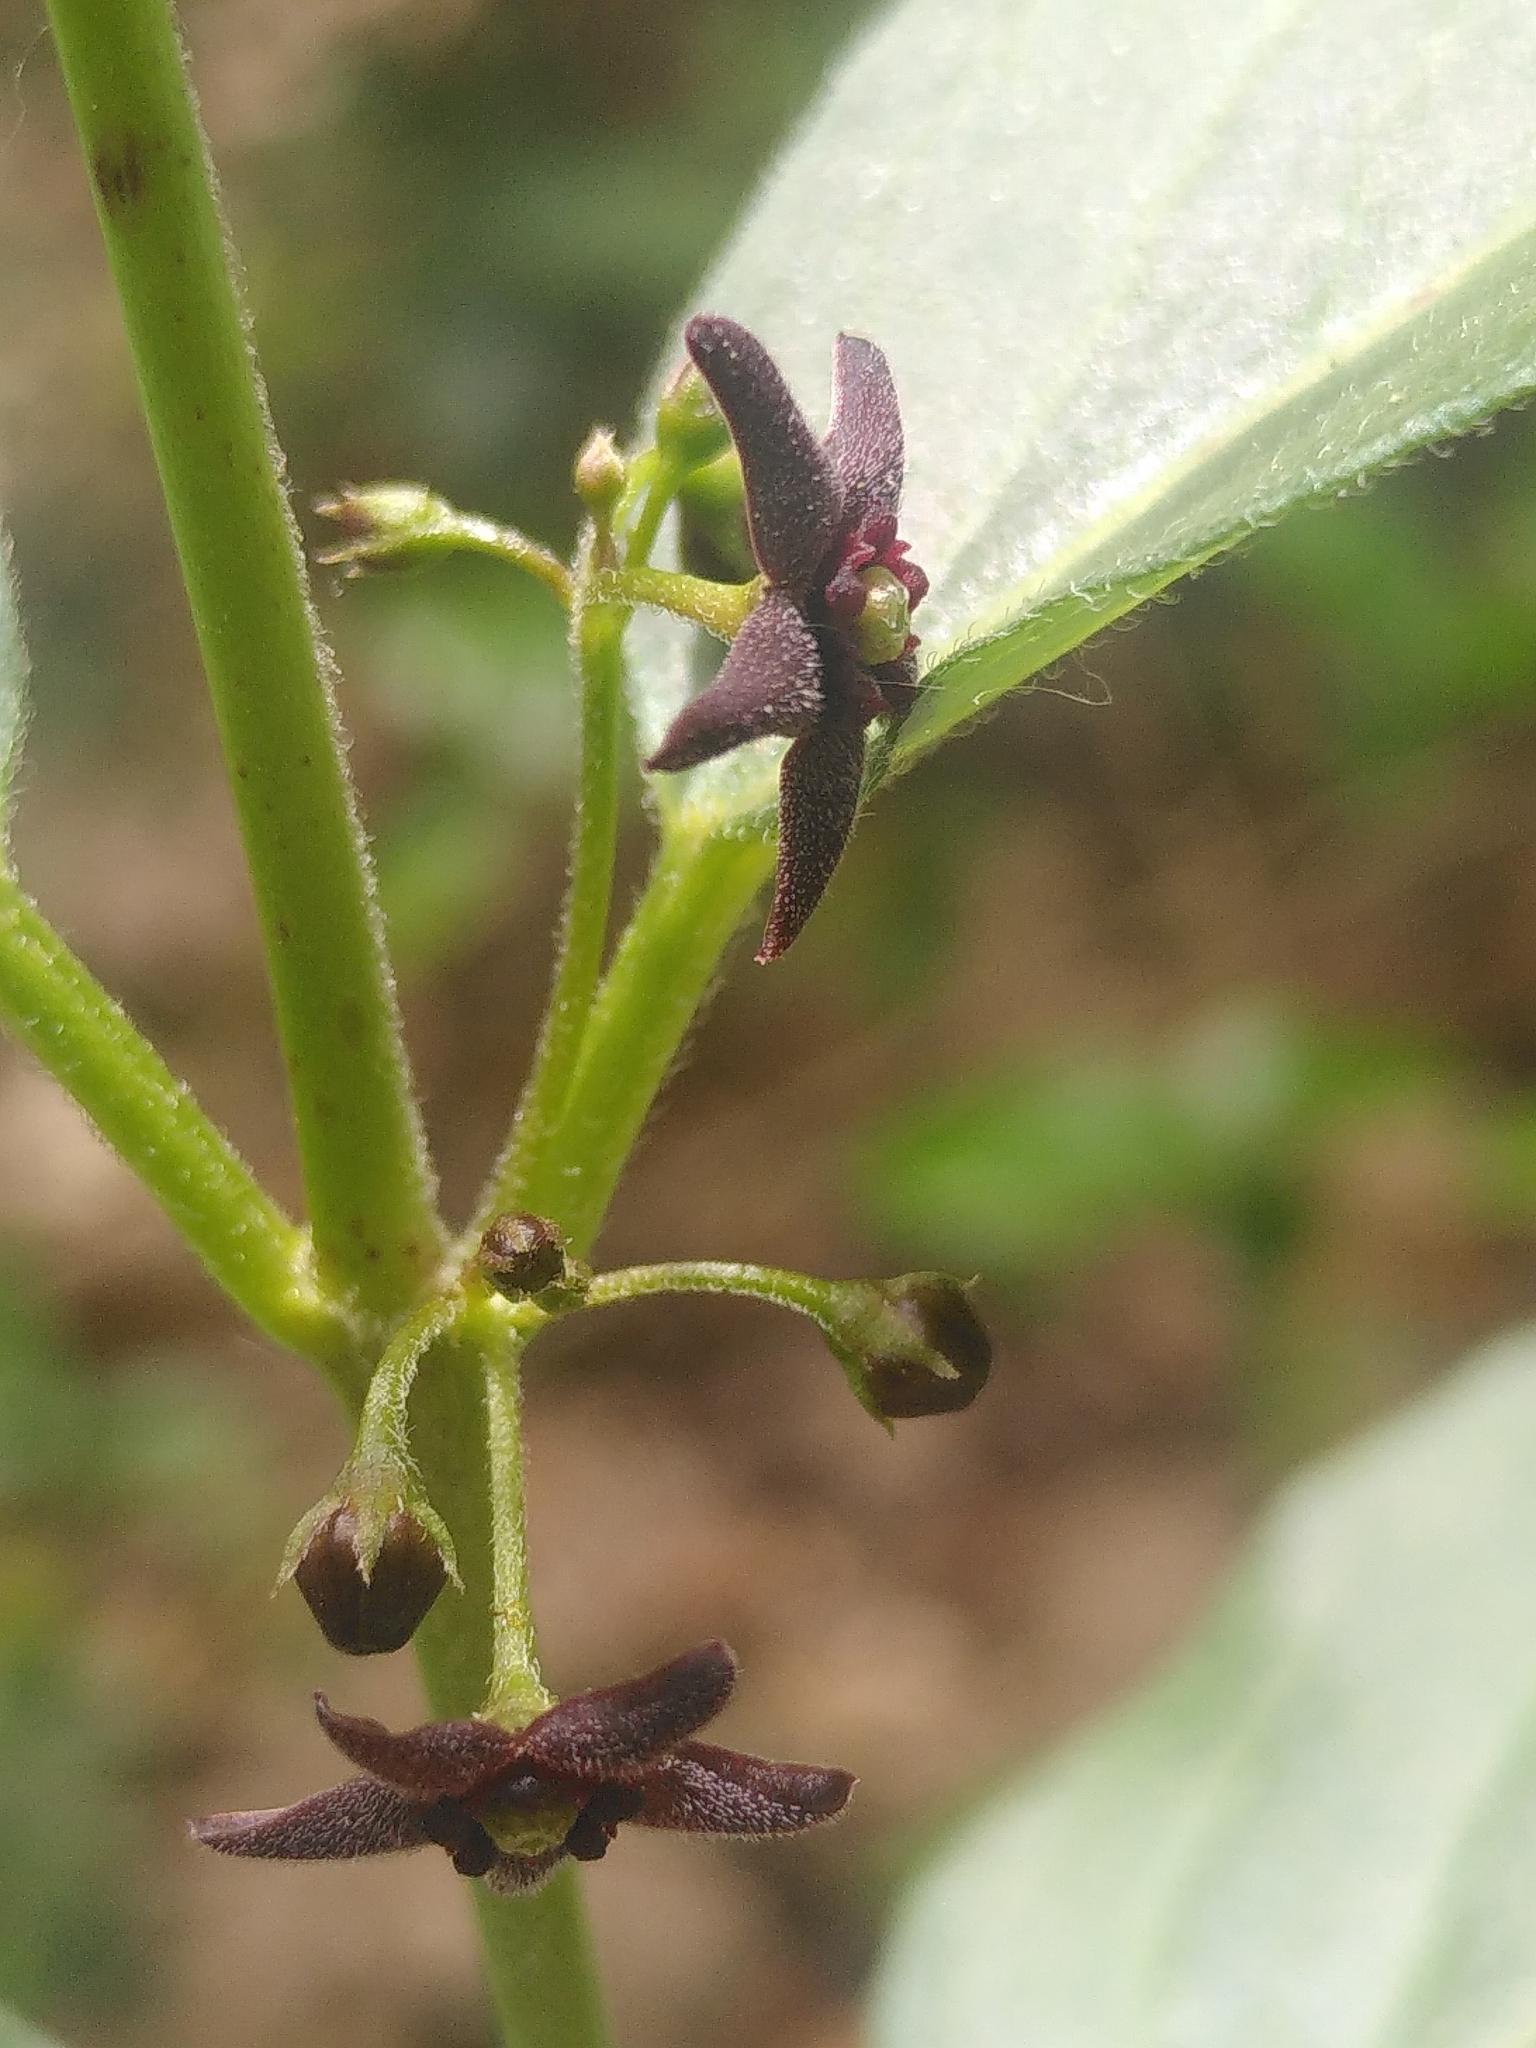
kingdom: Plantae
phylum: Tracheophyta
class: Magnoliopsida
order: Gentianales
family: Apocynaceae
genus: Vincetoxicum
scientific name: Vincetoxicum nigrum
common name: Black swallow-wort
